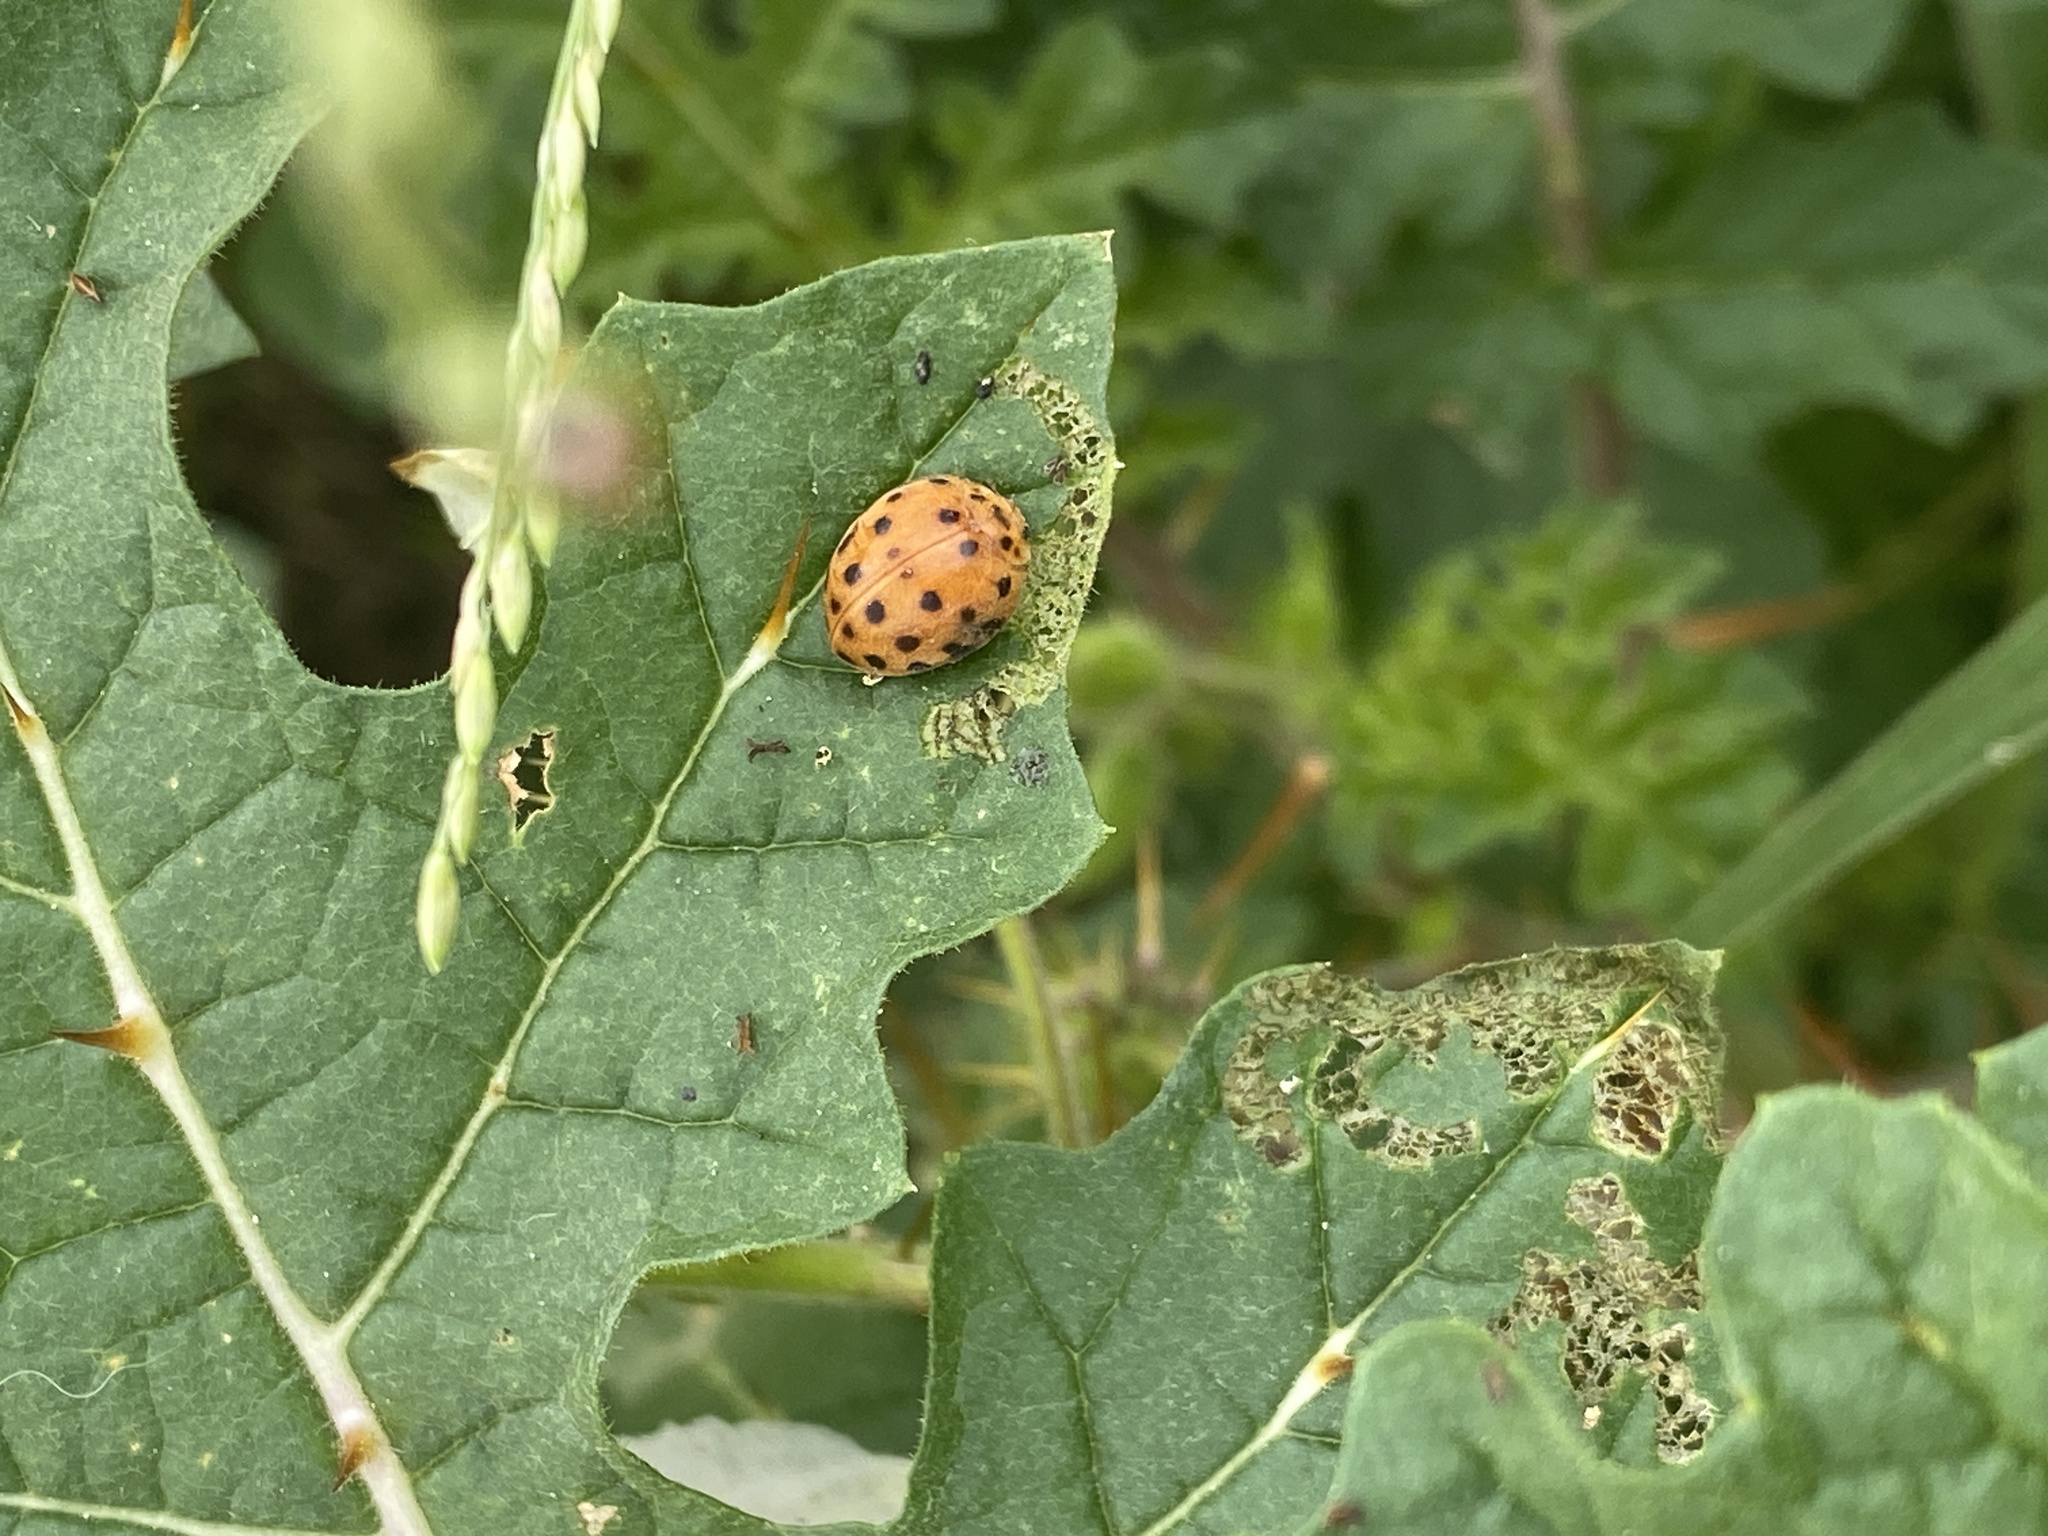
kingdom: Animalia
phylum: Arthropoda
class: Insecta
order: Coleoptera
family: Coccinellidae
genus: Henosepilachna
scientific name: Henosepilachna vigintioctopunctata
